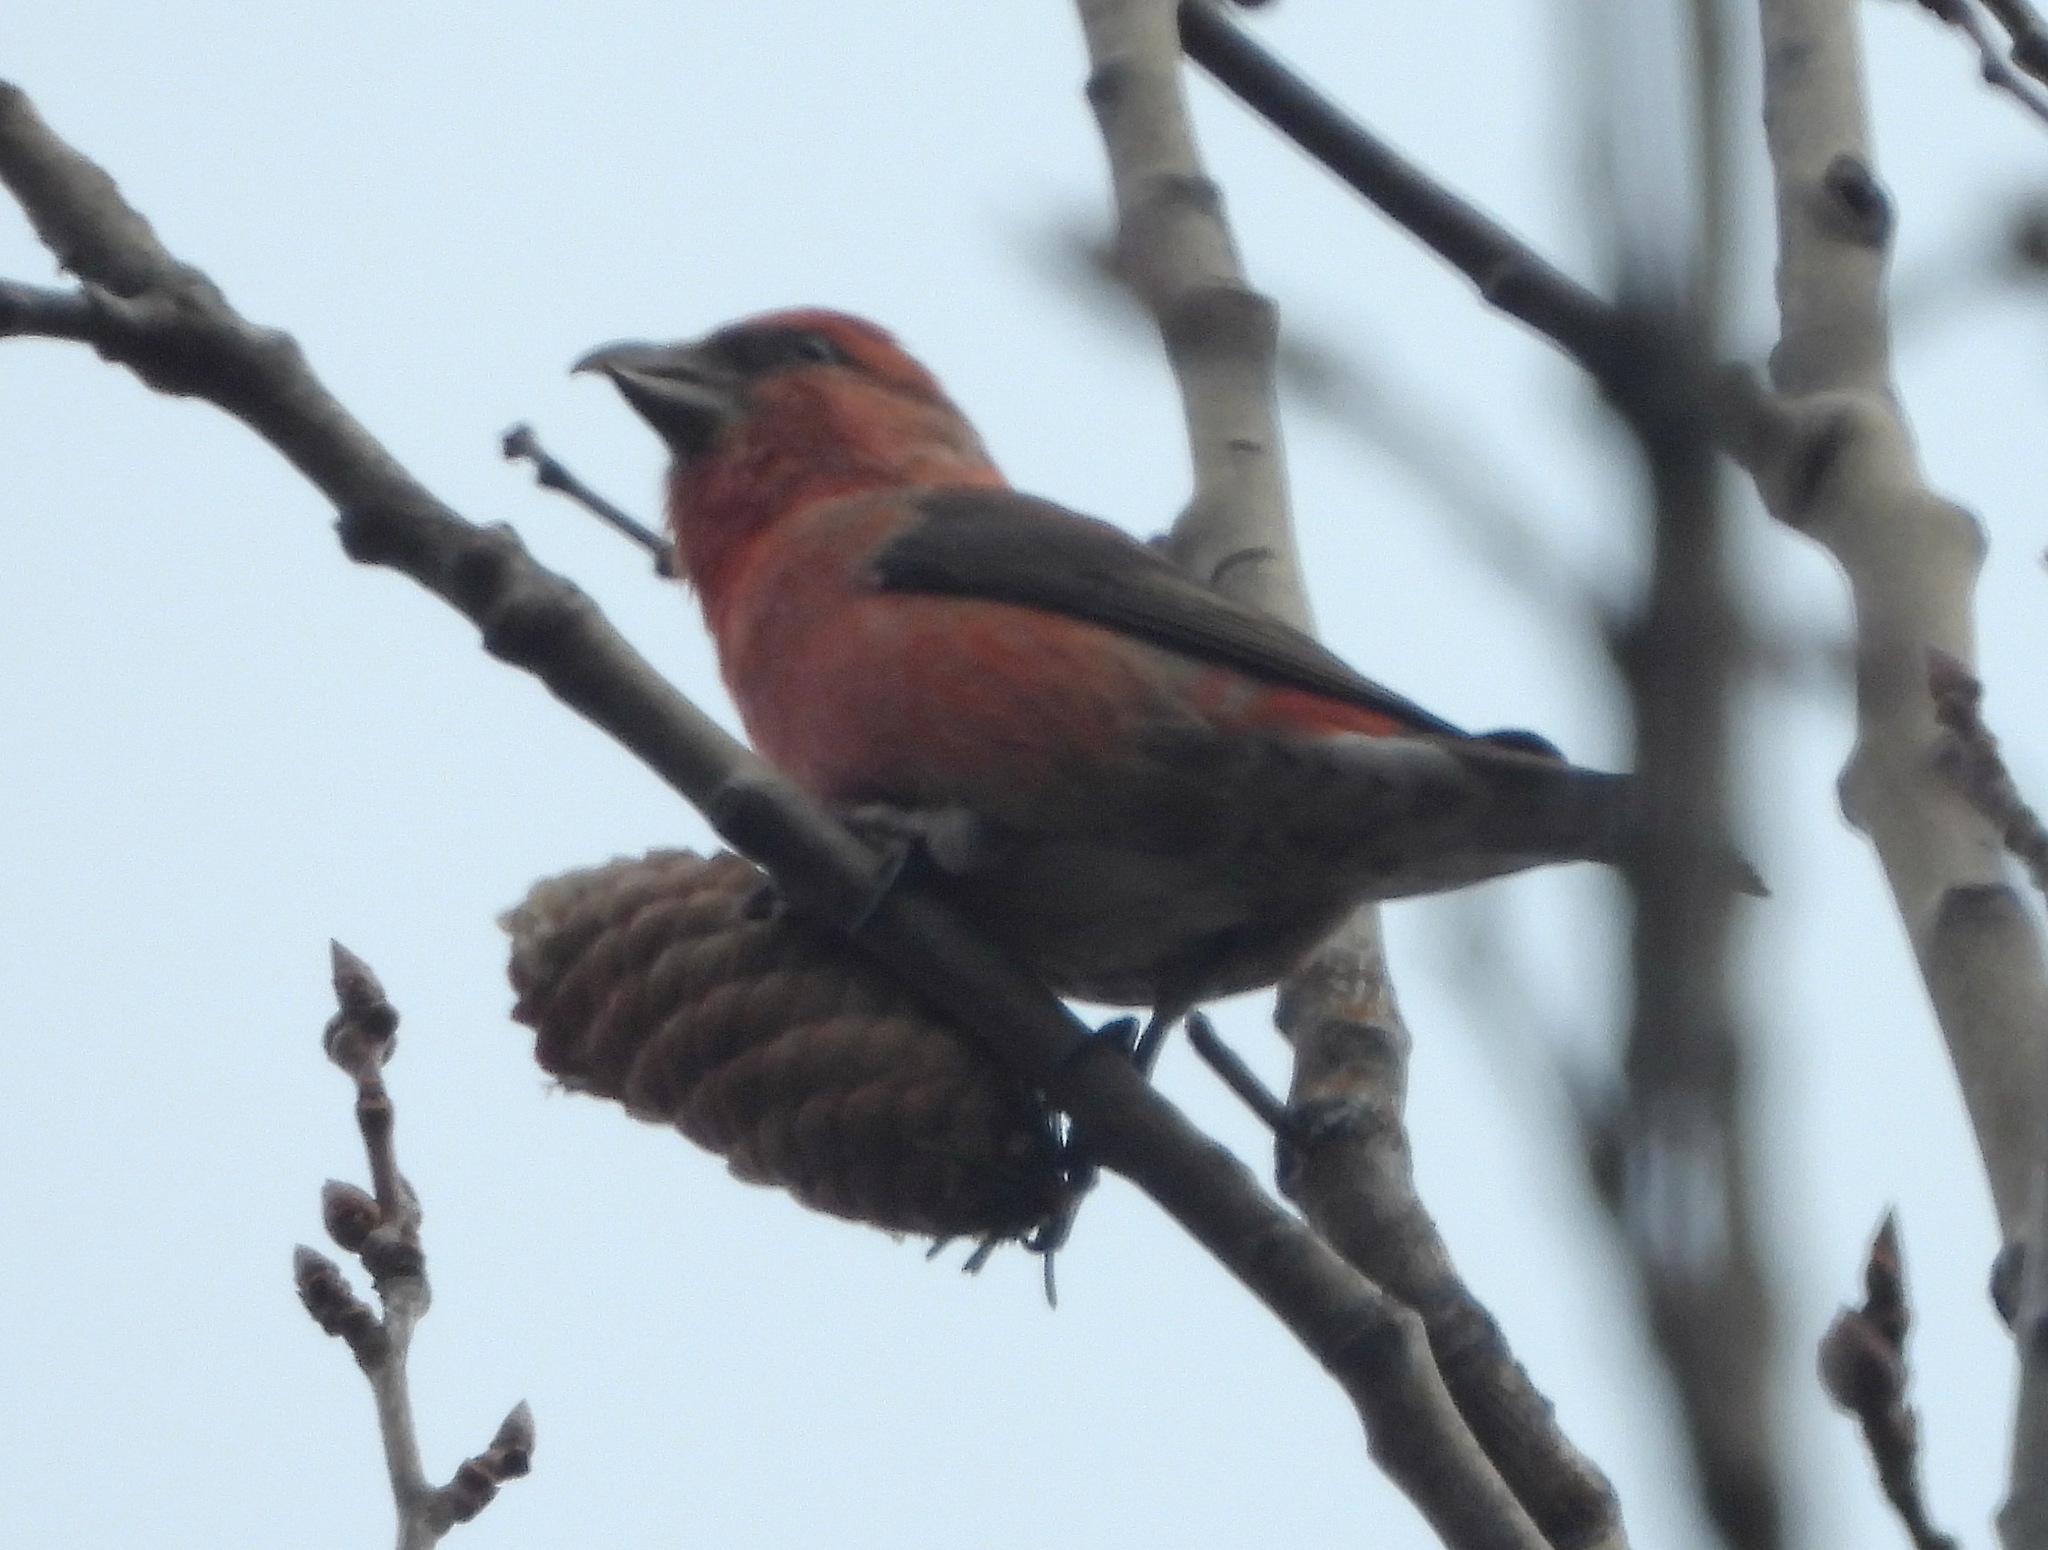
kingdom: Animalia
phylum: Chordata
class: Aves
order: Passeriformes
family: Fringillidae
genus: Loxia
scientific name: Loxia curvirostra
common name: Red crossbill
